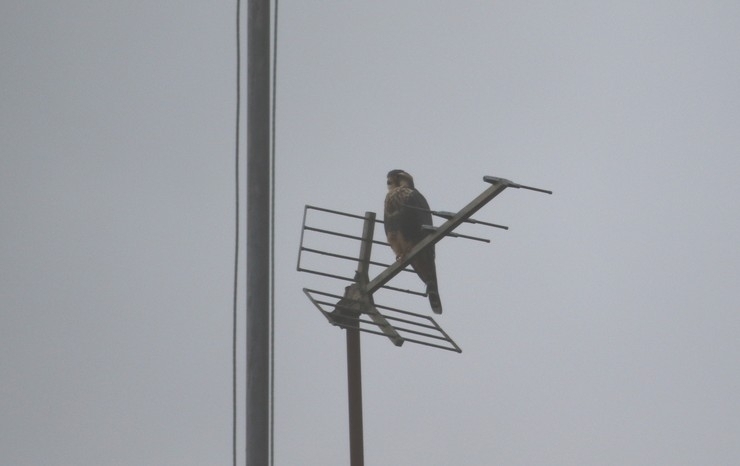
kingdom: Animalia
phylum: Chordata
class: Aves
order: Falconiformes
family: Falconidae
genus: Falco
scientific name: Falco femoralis
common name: Aplomado falcon
